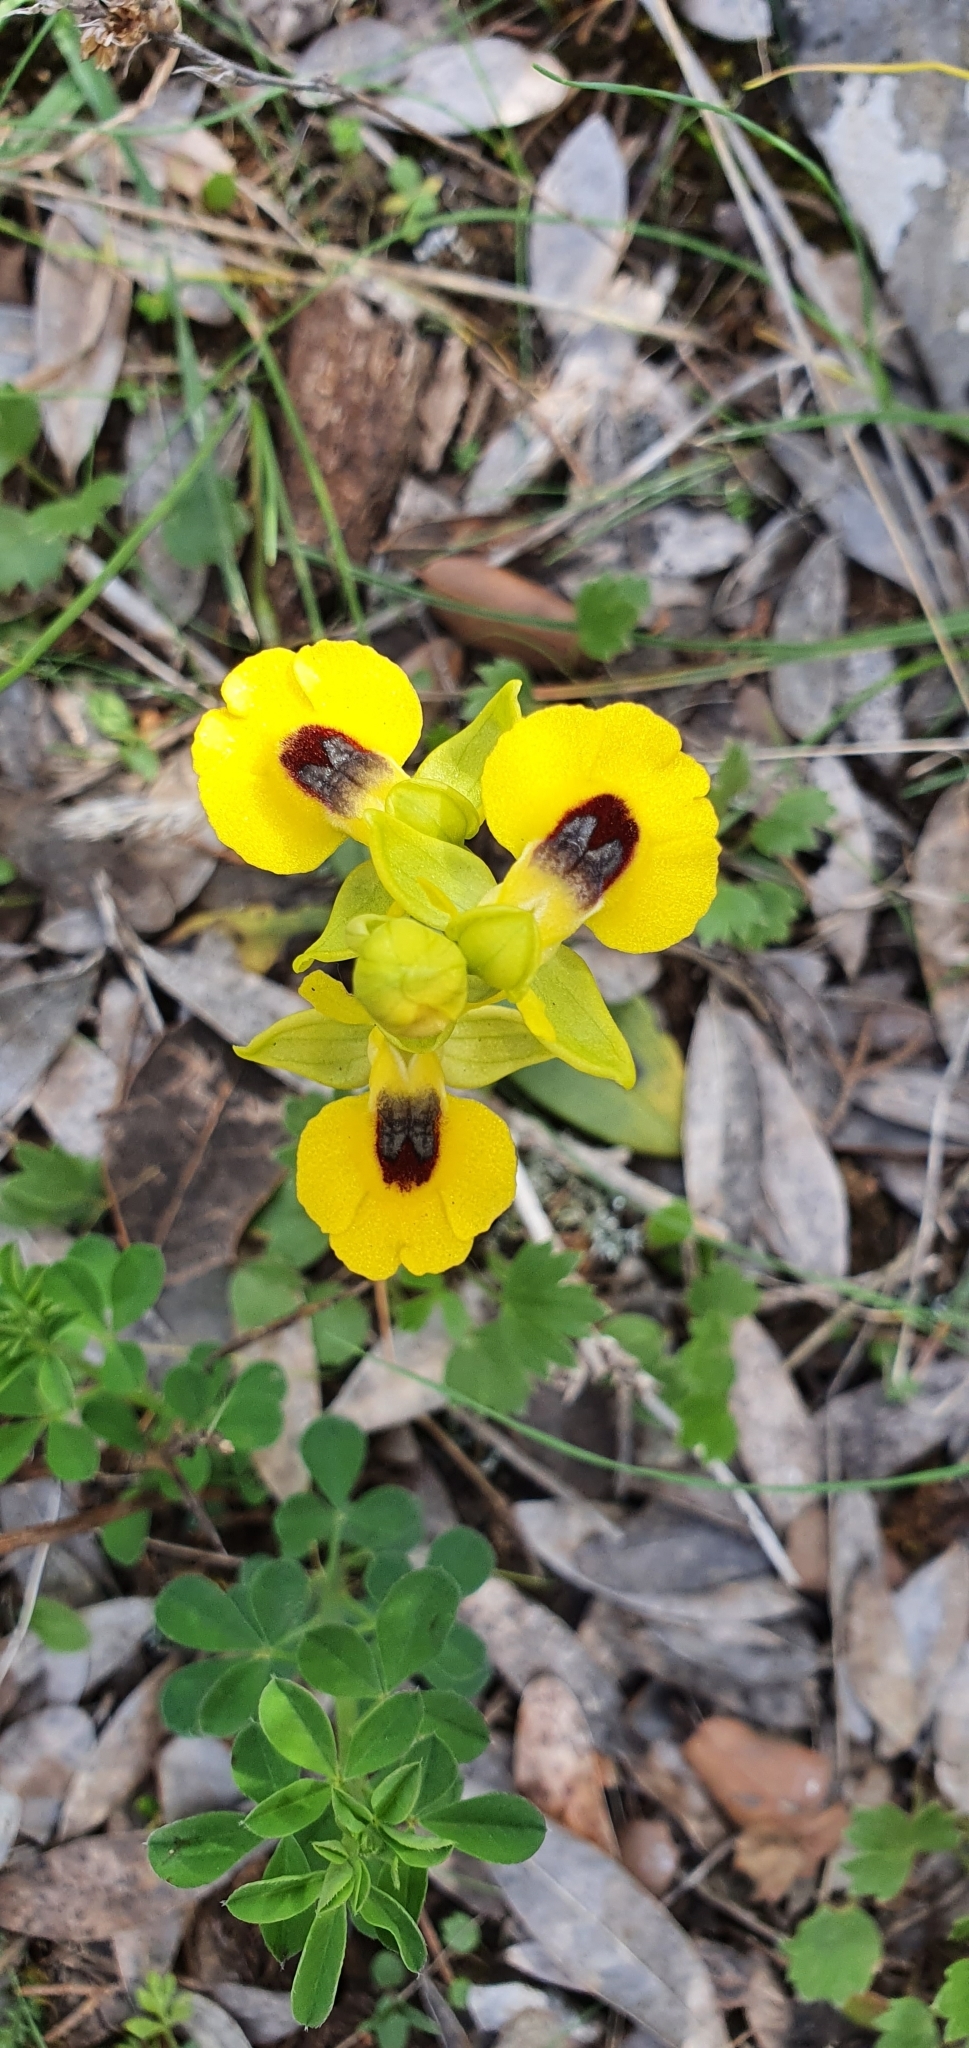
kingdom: Plantae
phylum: Tracheophyta
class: Liliopsida
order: Asparagales
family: Orchidaceae
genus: Ophrys
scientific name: Ophrys lutea
